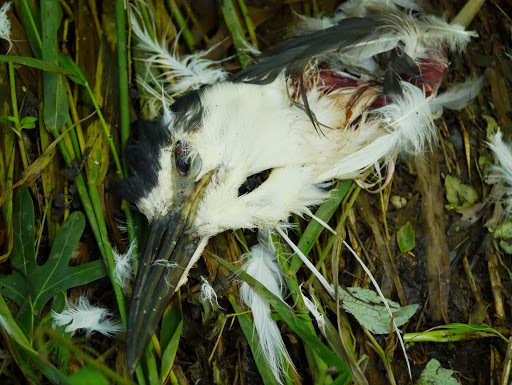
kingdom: Animalia
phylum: Chordata
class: Aves
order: Pelecaniformes
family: Ardeidae
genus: Nycticorax
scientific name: Nycticorax nycticorax
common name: Black-crowned night heron
